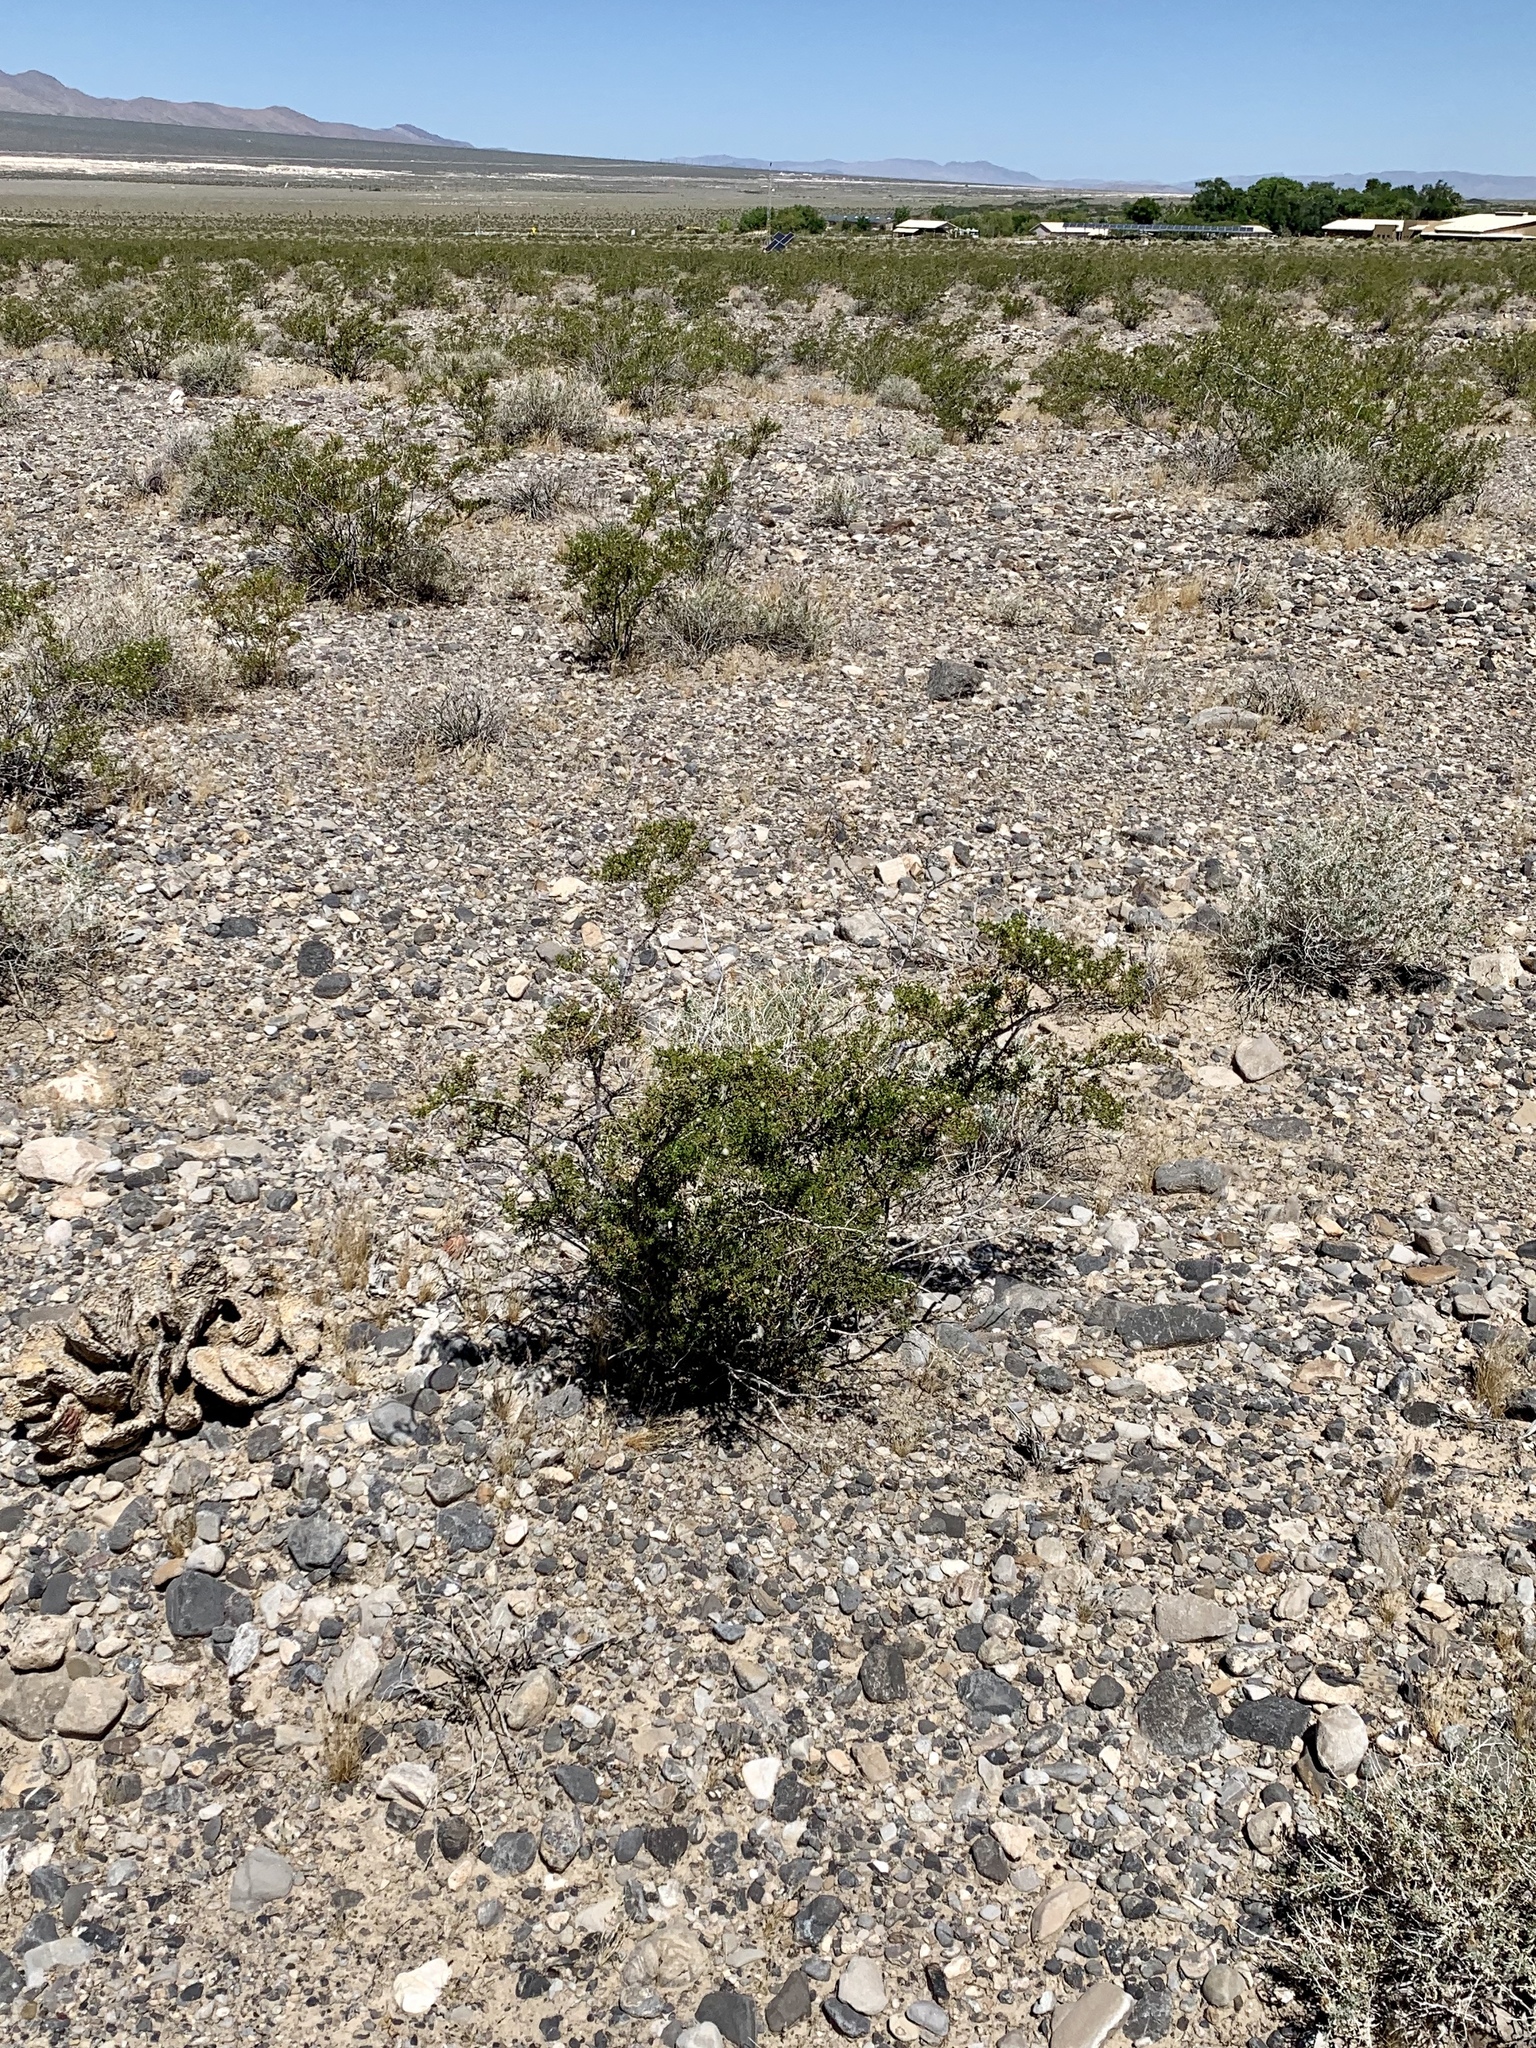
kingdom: Plantae
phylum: Tracheophyta
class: Magnoliopsida
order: Zygophyllales
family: Zygophyllaceae
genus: Larrea
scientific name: Larrea tridentata
